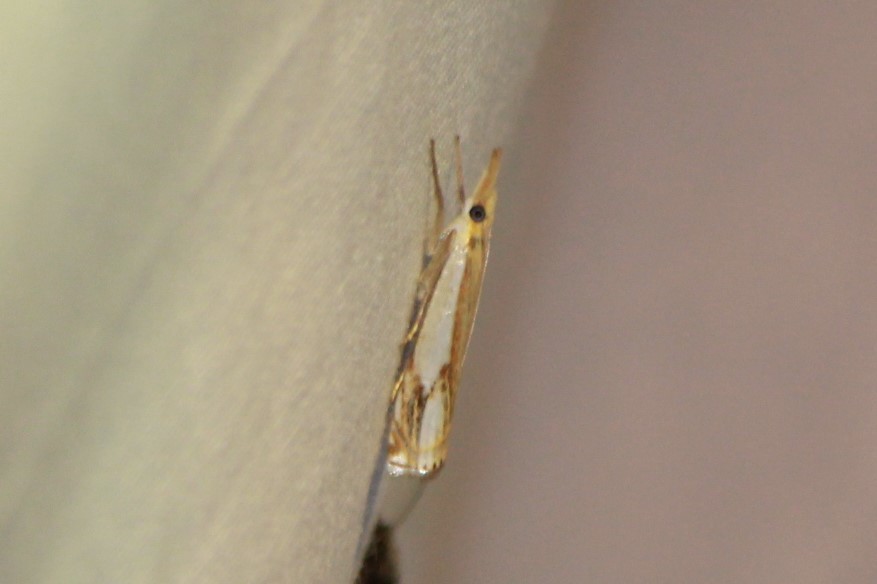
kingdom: Animalia
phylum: Arthropoda
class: Insecta
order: Lepidoptera
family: Crambidae
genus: Crambus
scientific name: Crambus agitatellus
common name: Double-banded grass-veneer
